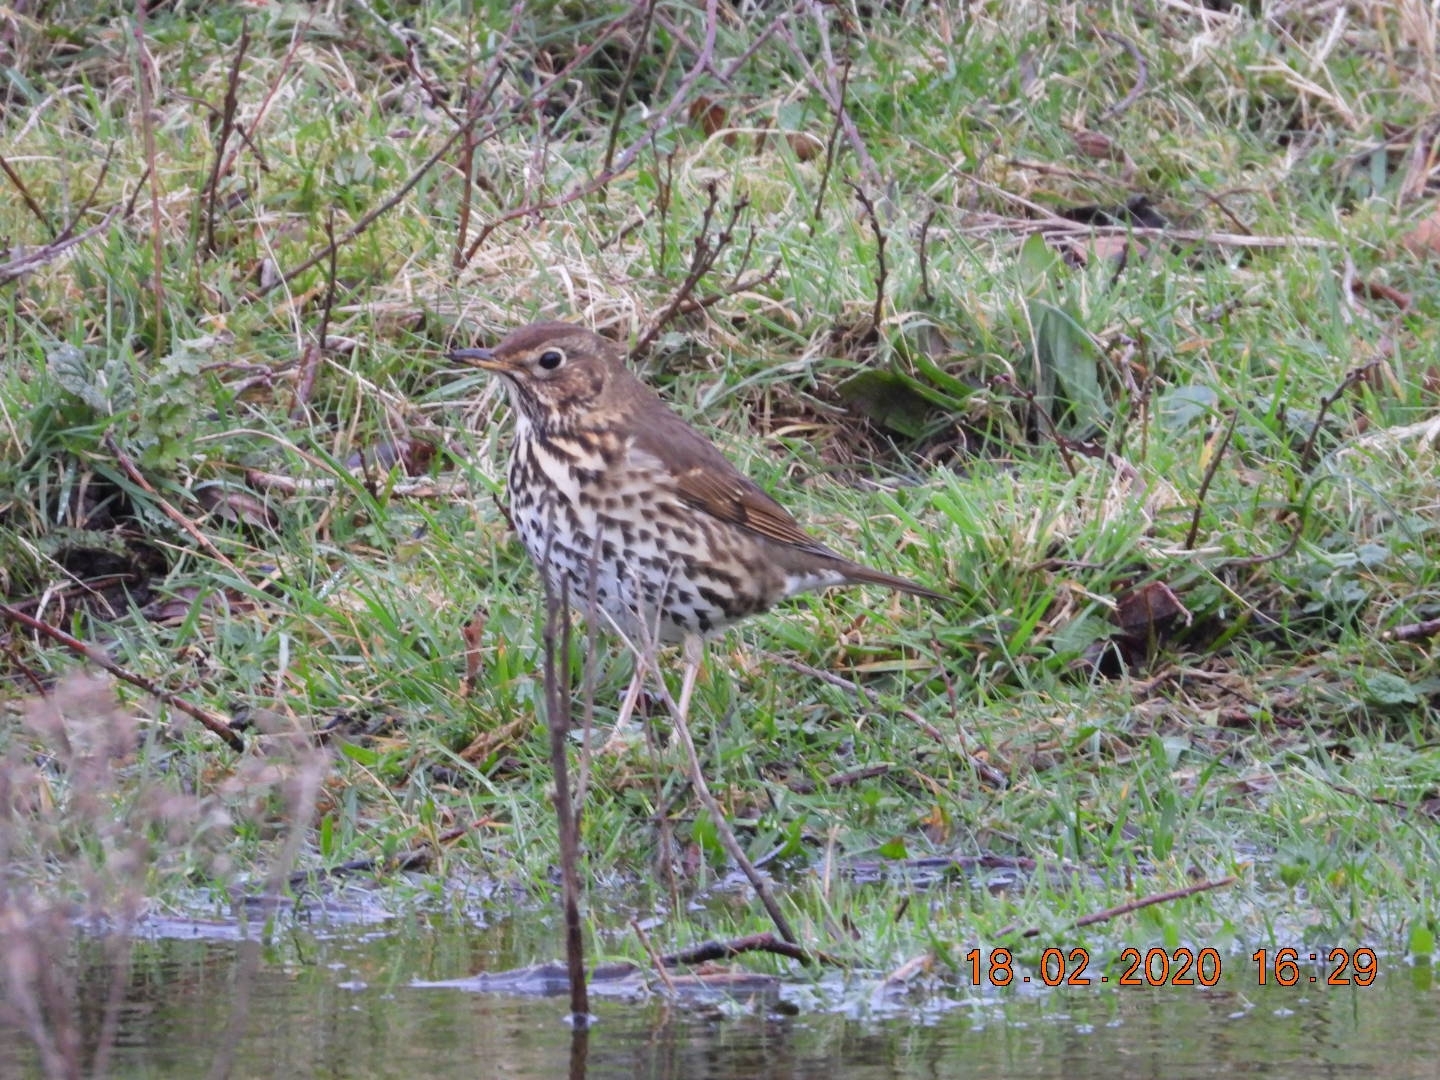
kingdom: Animalia
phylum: Chordata
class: Aves
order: Passeriformes
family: Turdidae
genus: Turdus
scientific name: Turdus philomelos
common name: Song thrush
